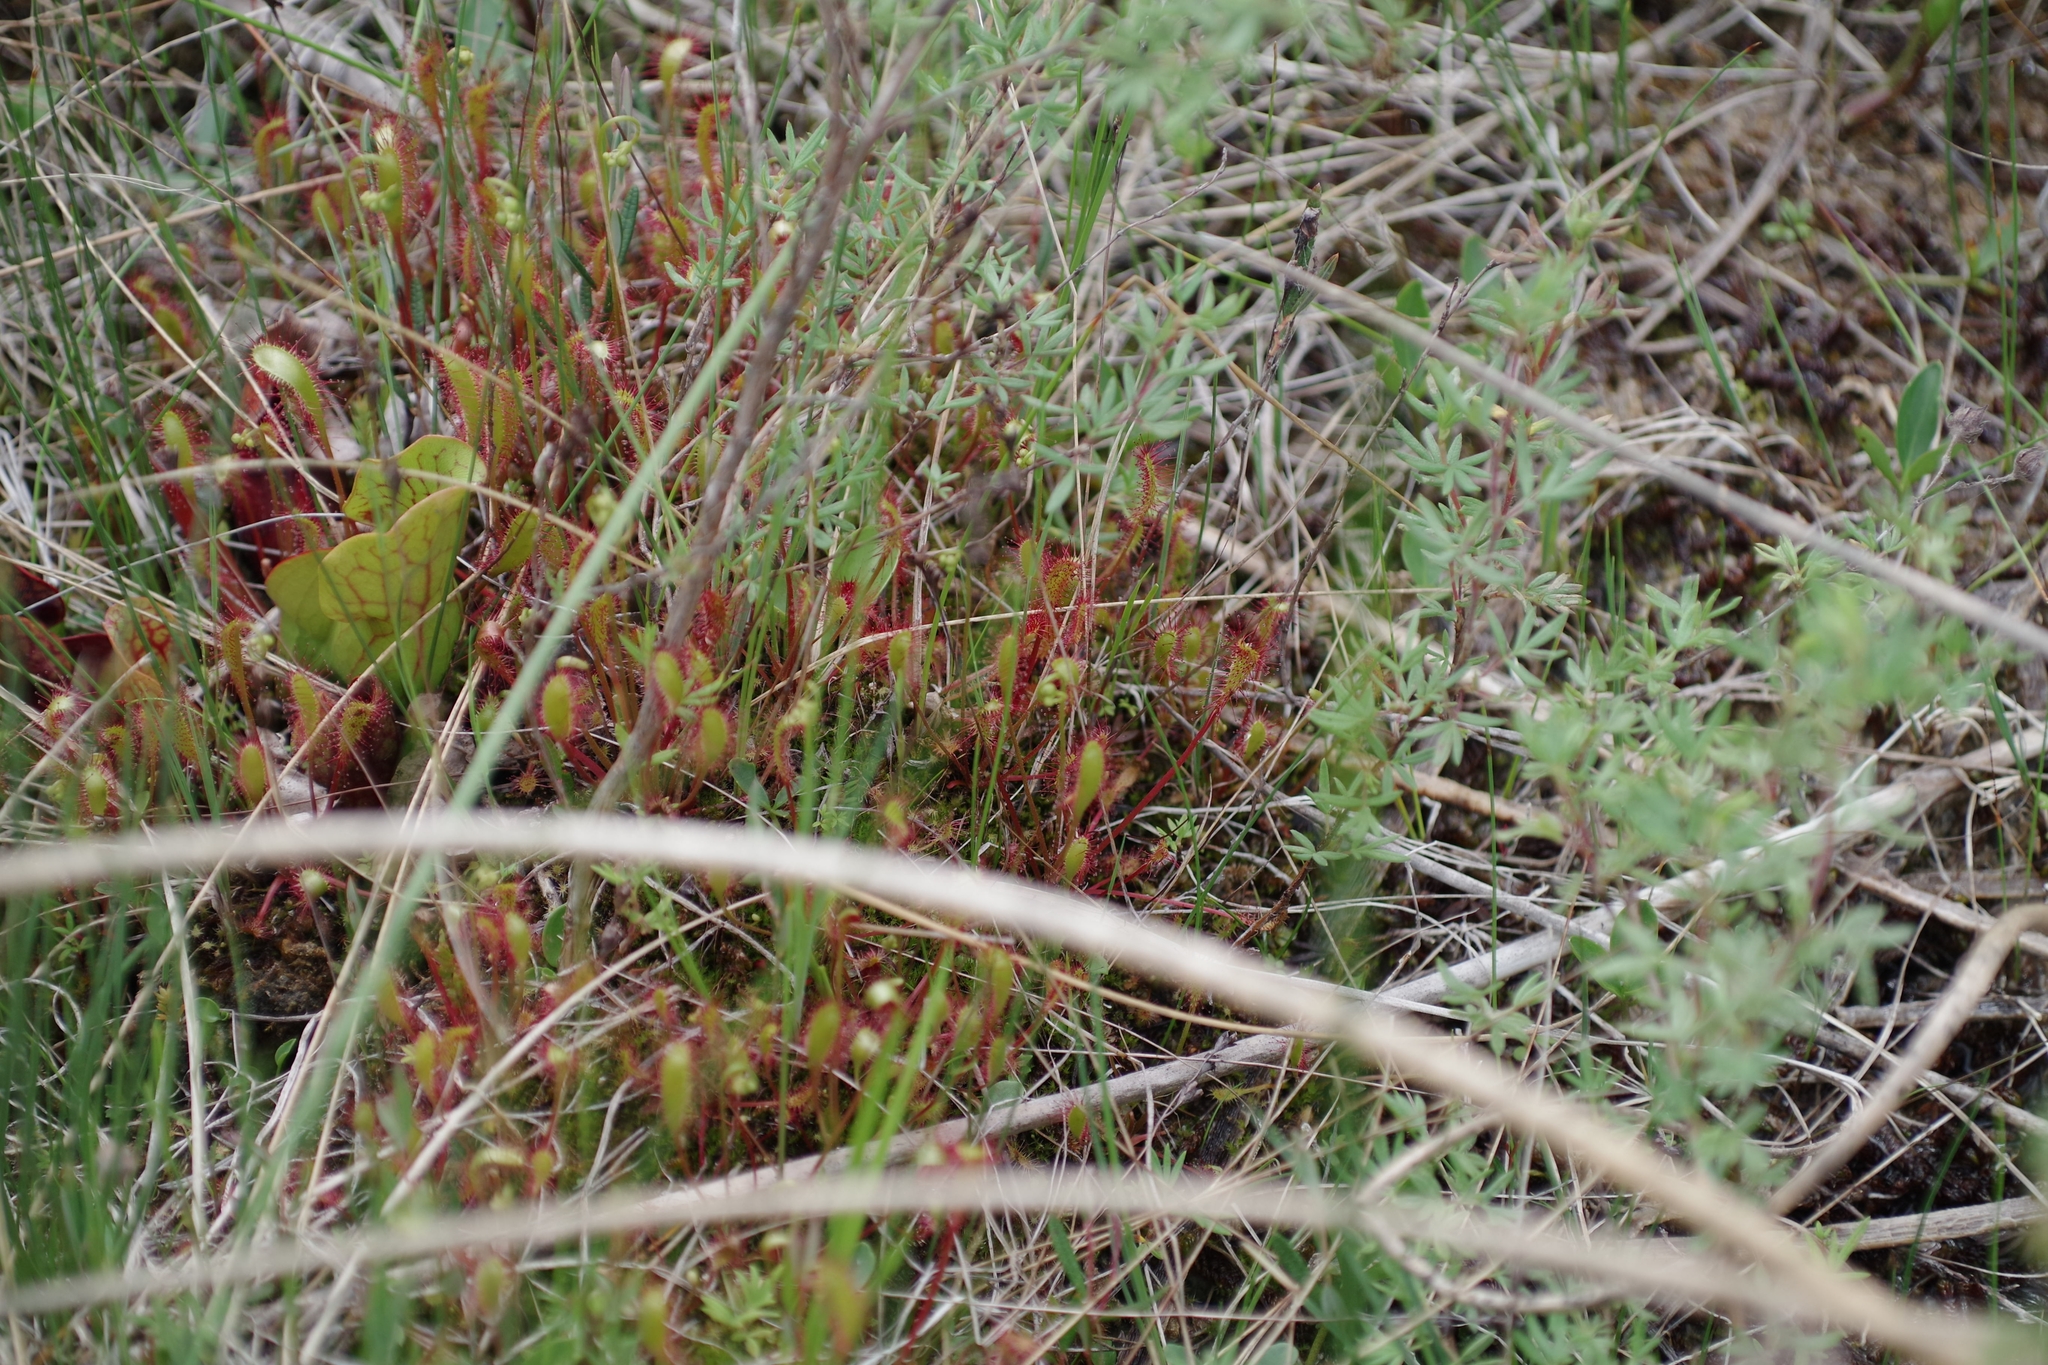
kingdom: Plantae
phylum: Tracheophyta
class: Magnoliopsida
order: Caryophyllales
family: Droseraceae
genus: Drosera
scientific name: Drosera anglica
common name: Great sundew
